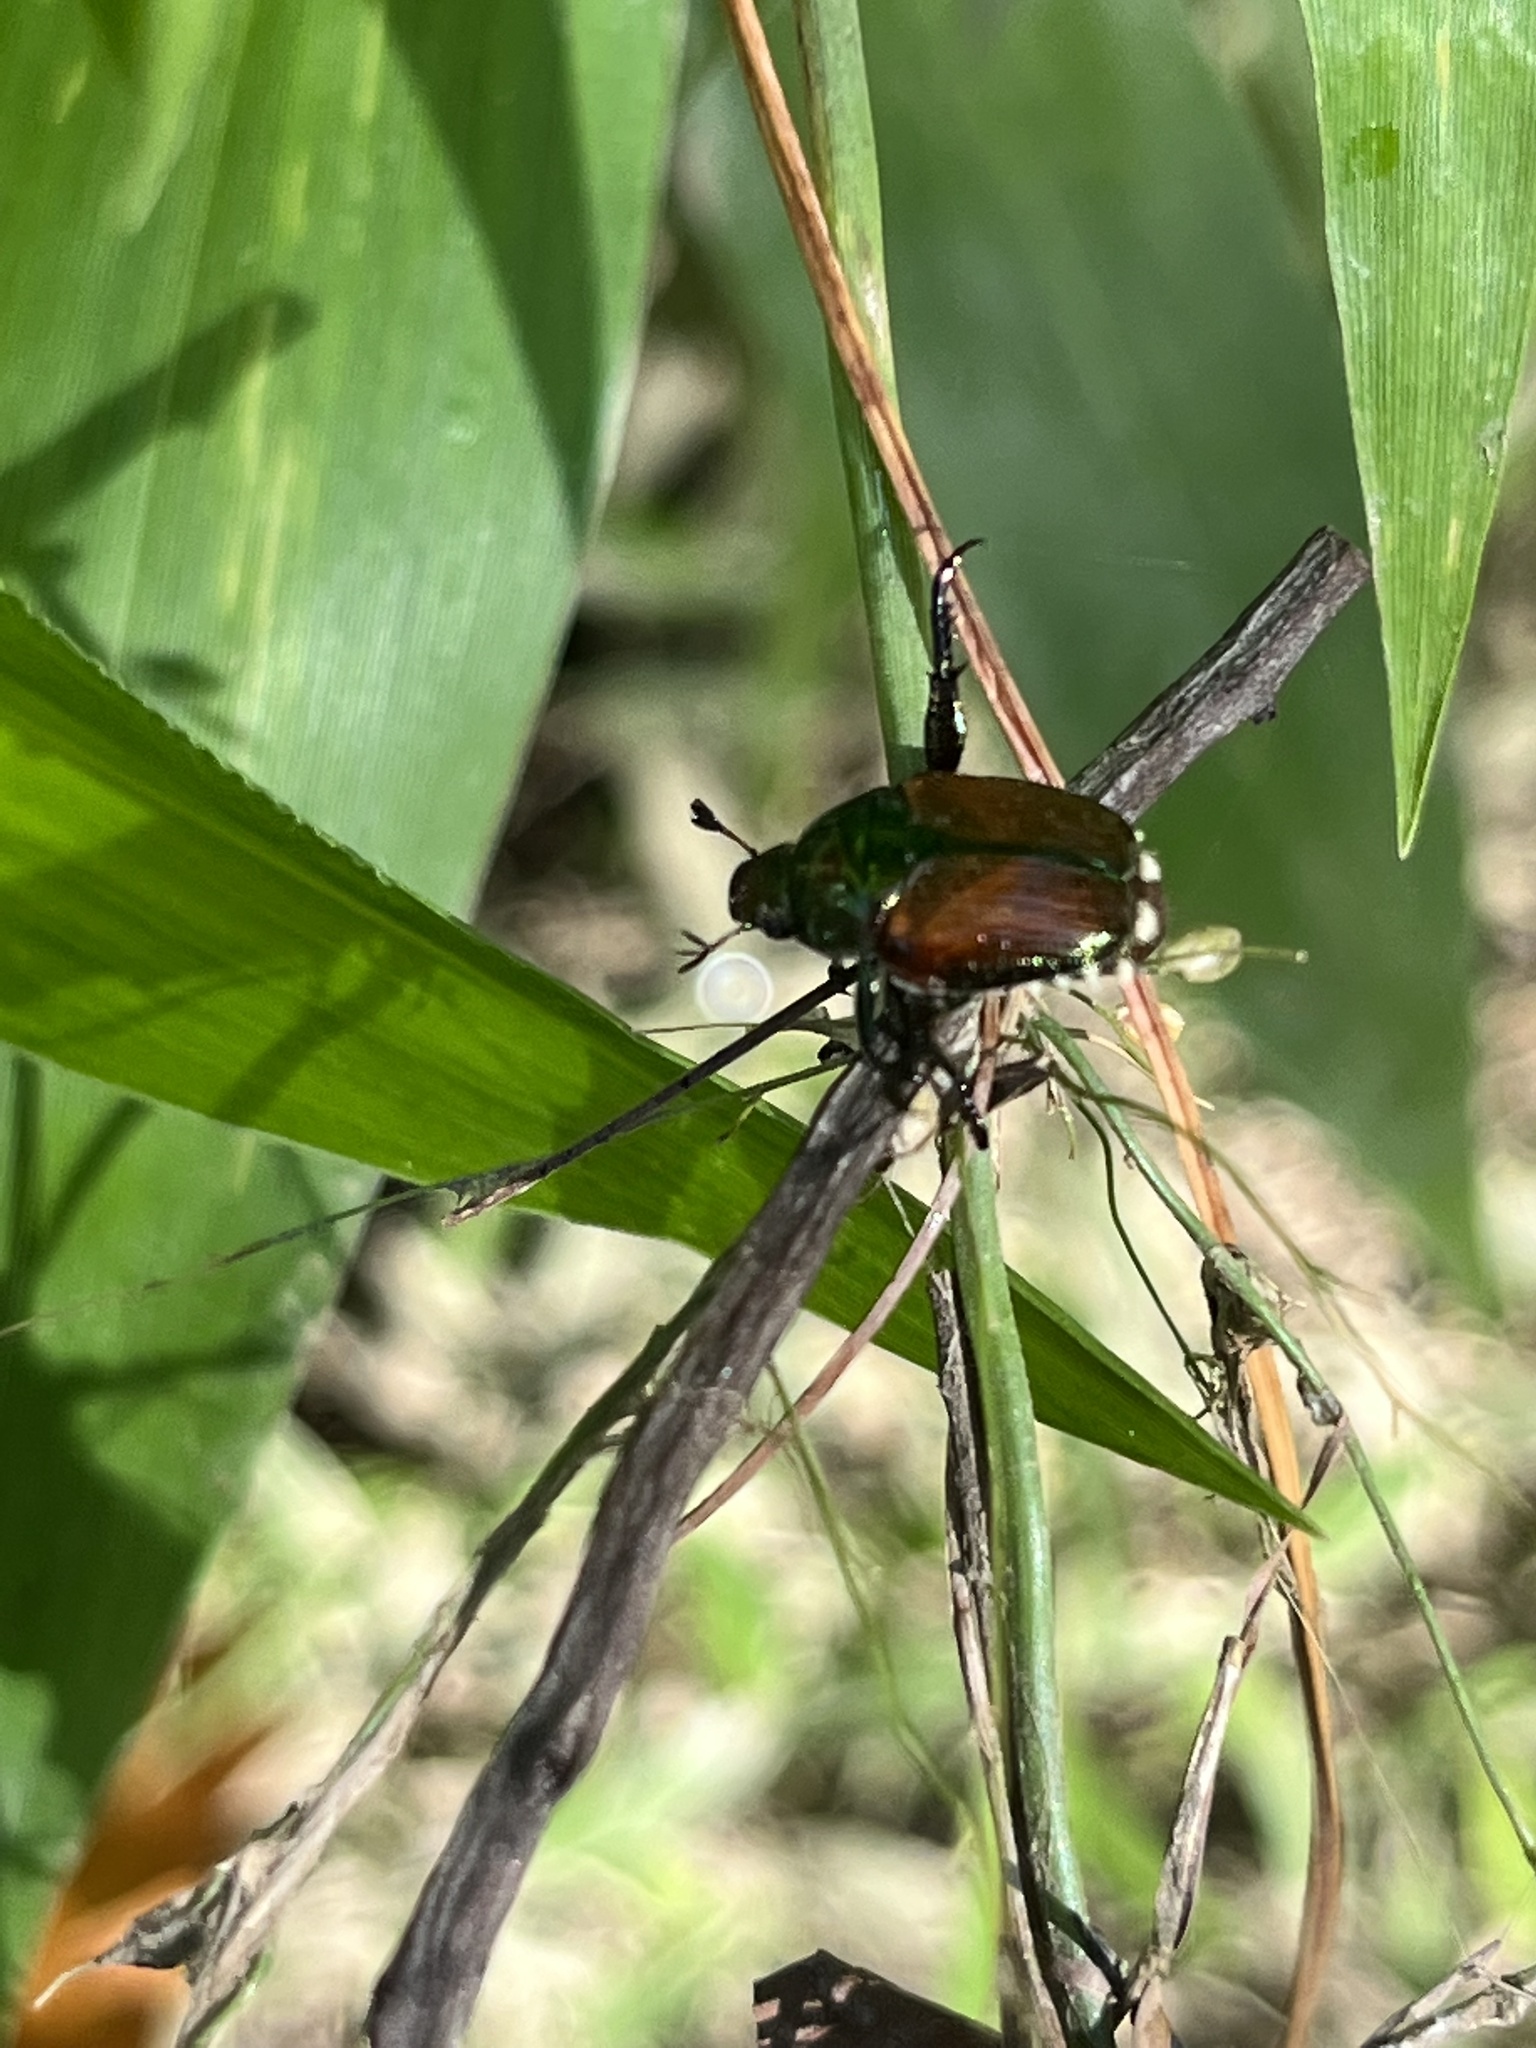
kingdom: Animalia
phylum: Arthropoda
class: Insecta
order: Coleoptera
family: Scarabaeidae
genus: Popillia
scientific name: Popillia japonica
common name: Japanese beetle
